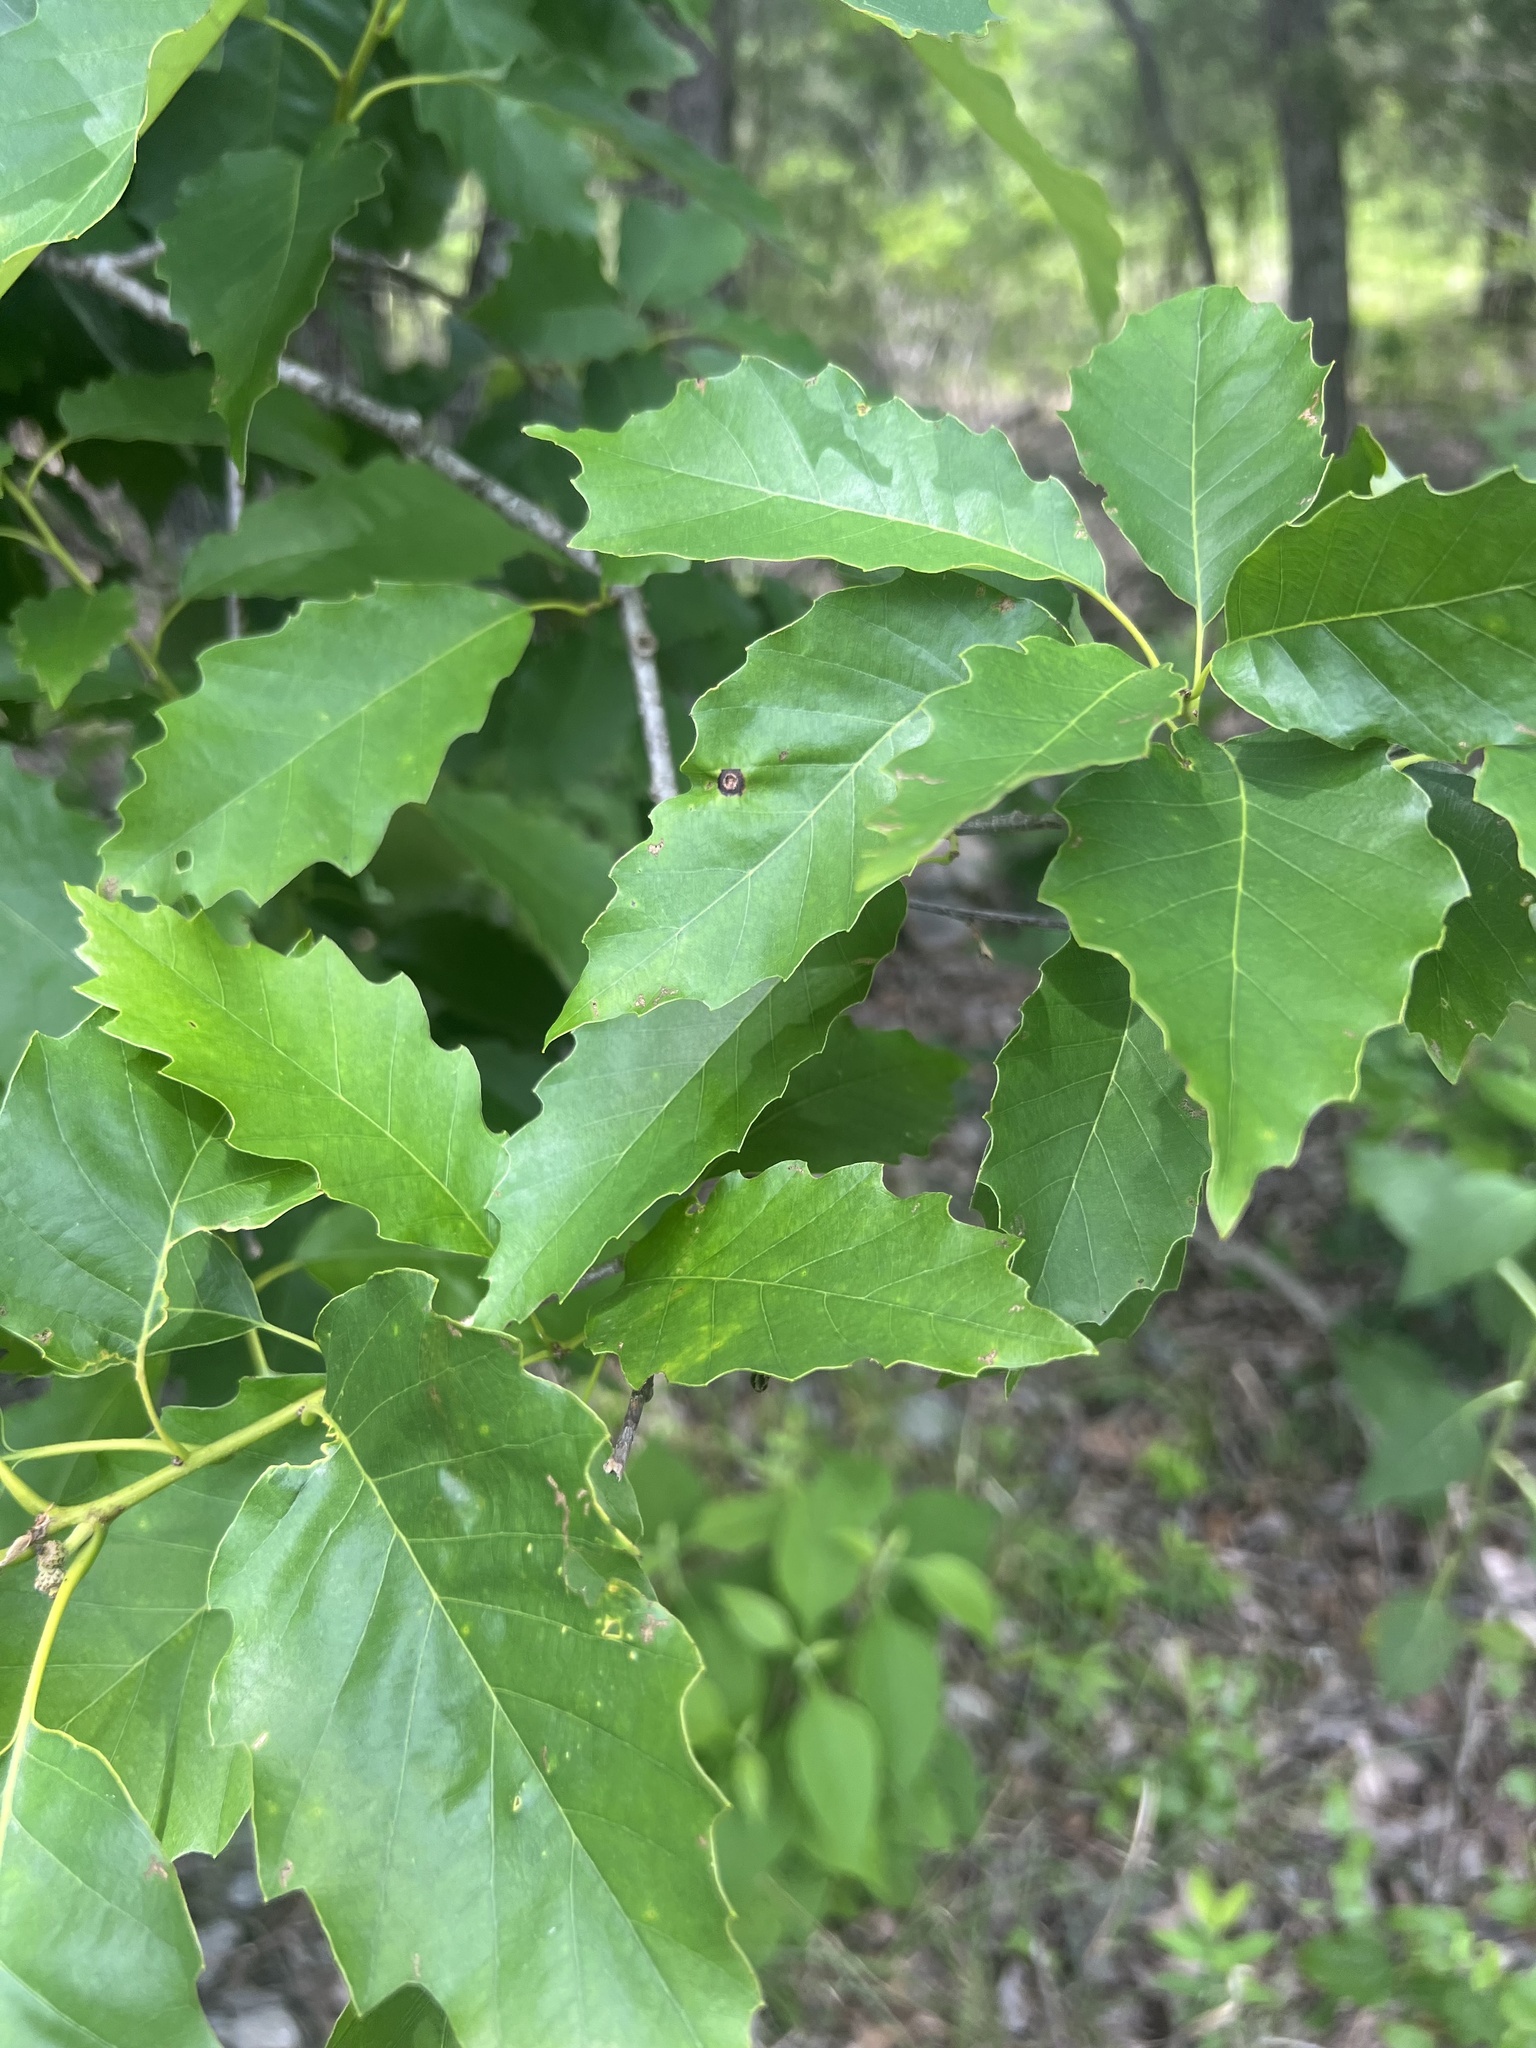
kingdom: Plantae
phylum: Tracheophyta
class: Magnoliopsida
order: Fagales
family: Fagaceae
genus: Quercus
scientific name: Quercus muehlenbergii
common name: Chinkapin oak
